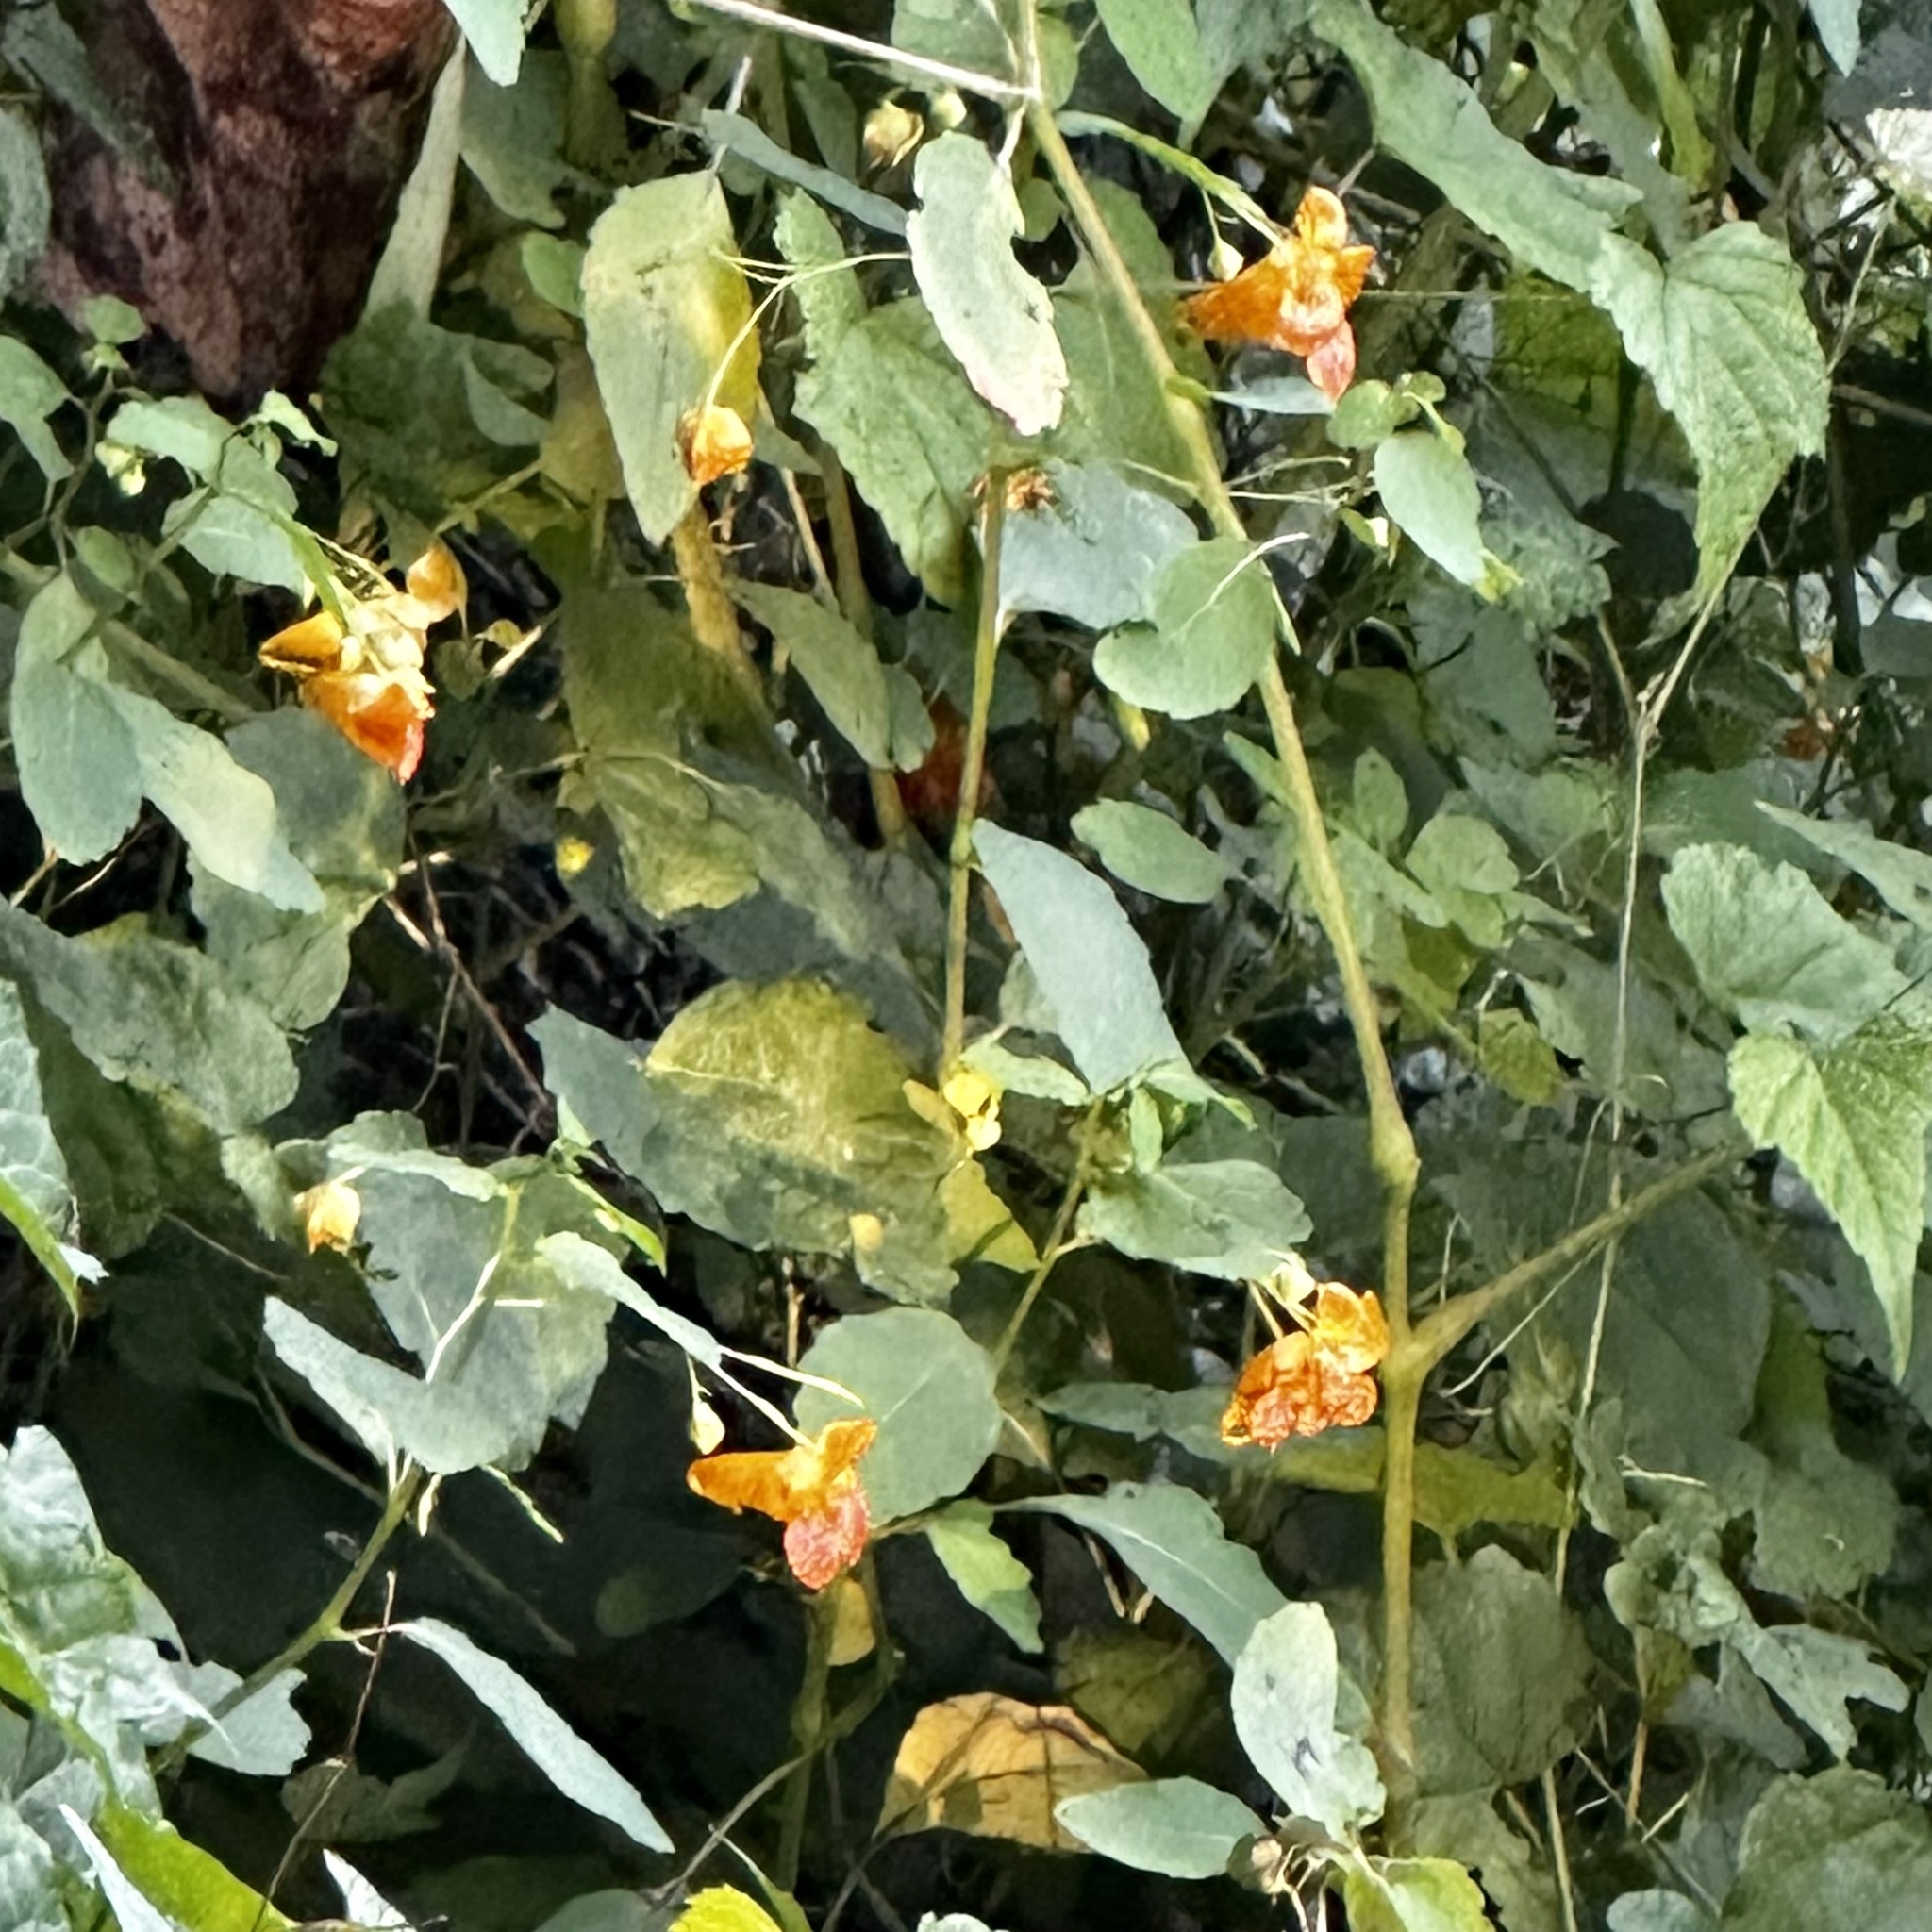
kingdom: Plantae
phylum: Tracheophyta
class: Magnoliopsida
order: Ericales
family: Balsaminaceae
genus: Impatiens
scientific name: Impatiens capensis
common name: Orange balsam
